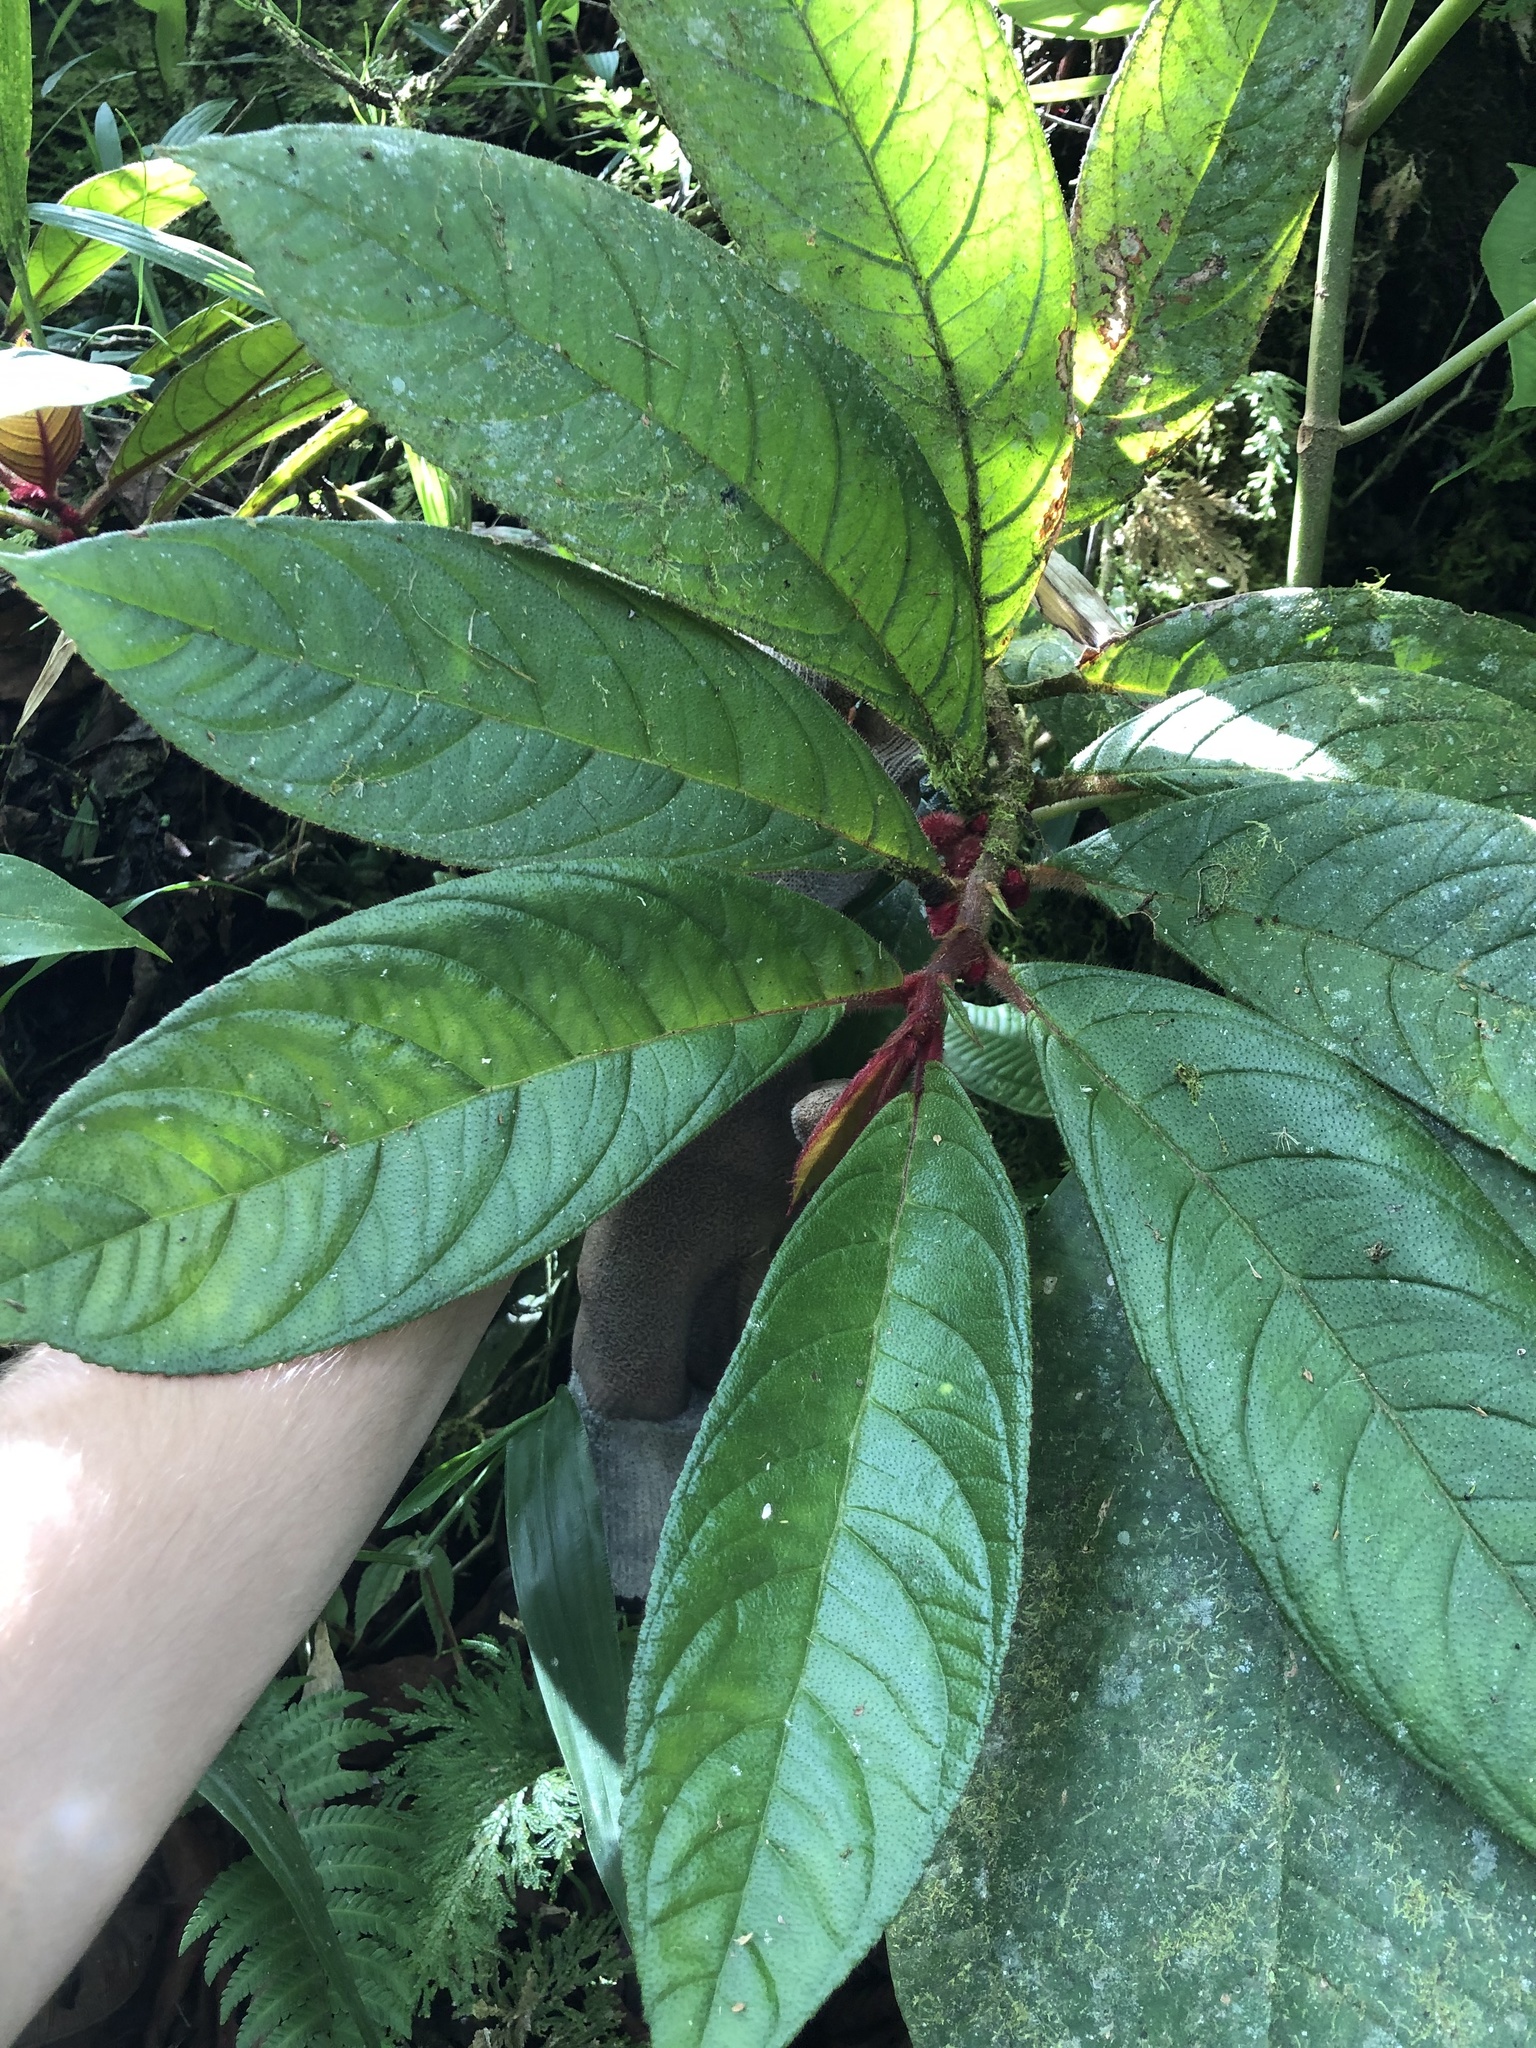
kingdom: Plantae
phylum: Tracheophyta
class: Magnoliopsida
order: Lamiales
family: Gesneriaceae
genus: Columnea
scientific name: Columnea inaequilatera
